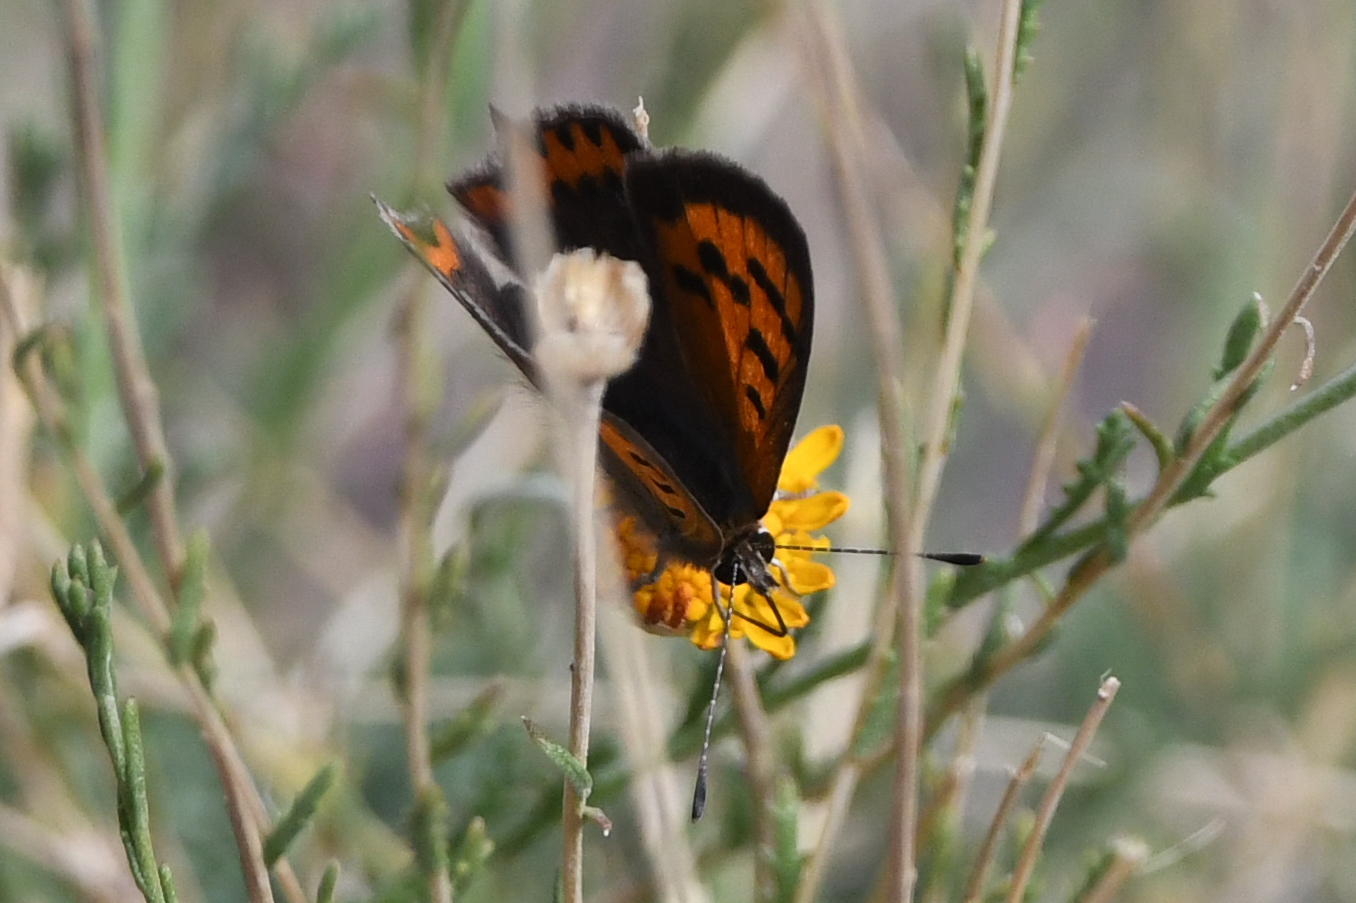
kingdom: Animalia
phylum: Arthropoda
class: Insecta
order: Lepidoptera
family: Lycaenidae
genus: Lycaena
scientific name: Lycaena phlaeas
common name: Small copper
